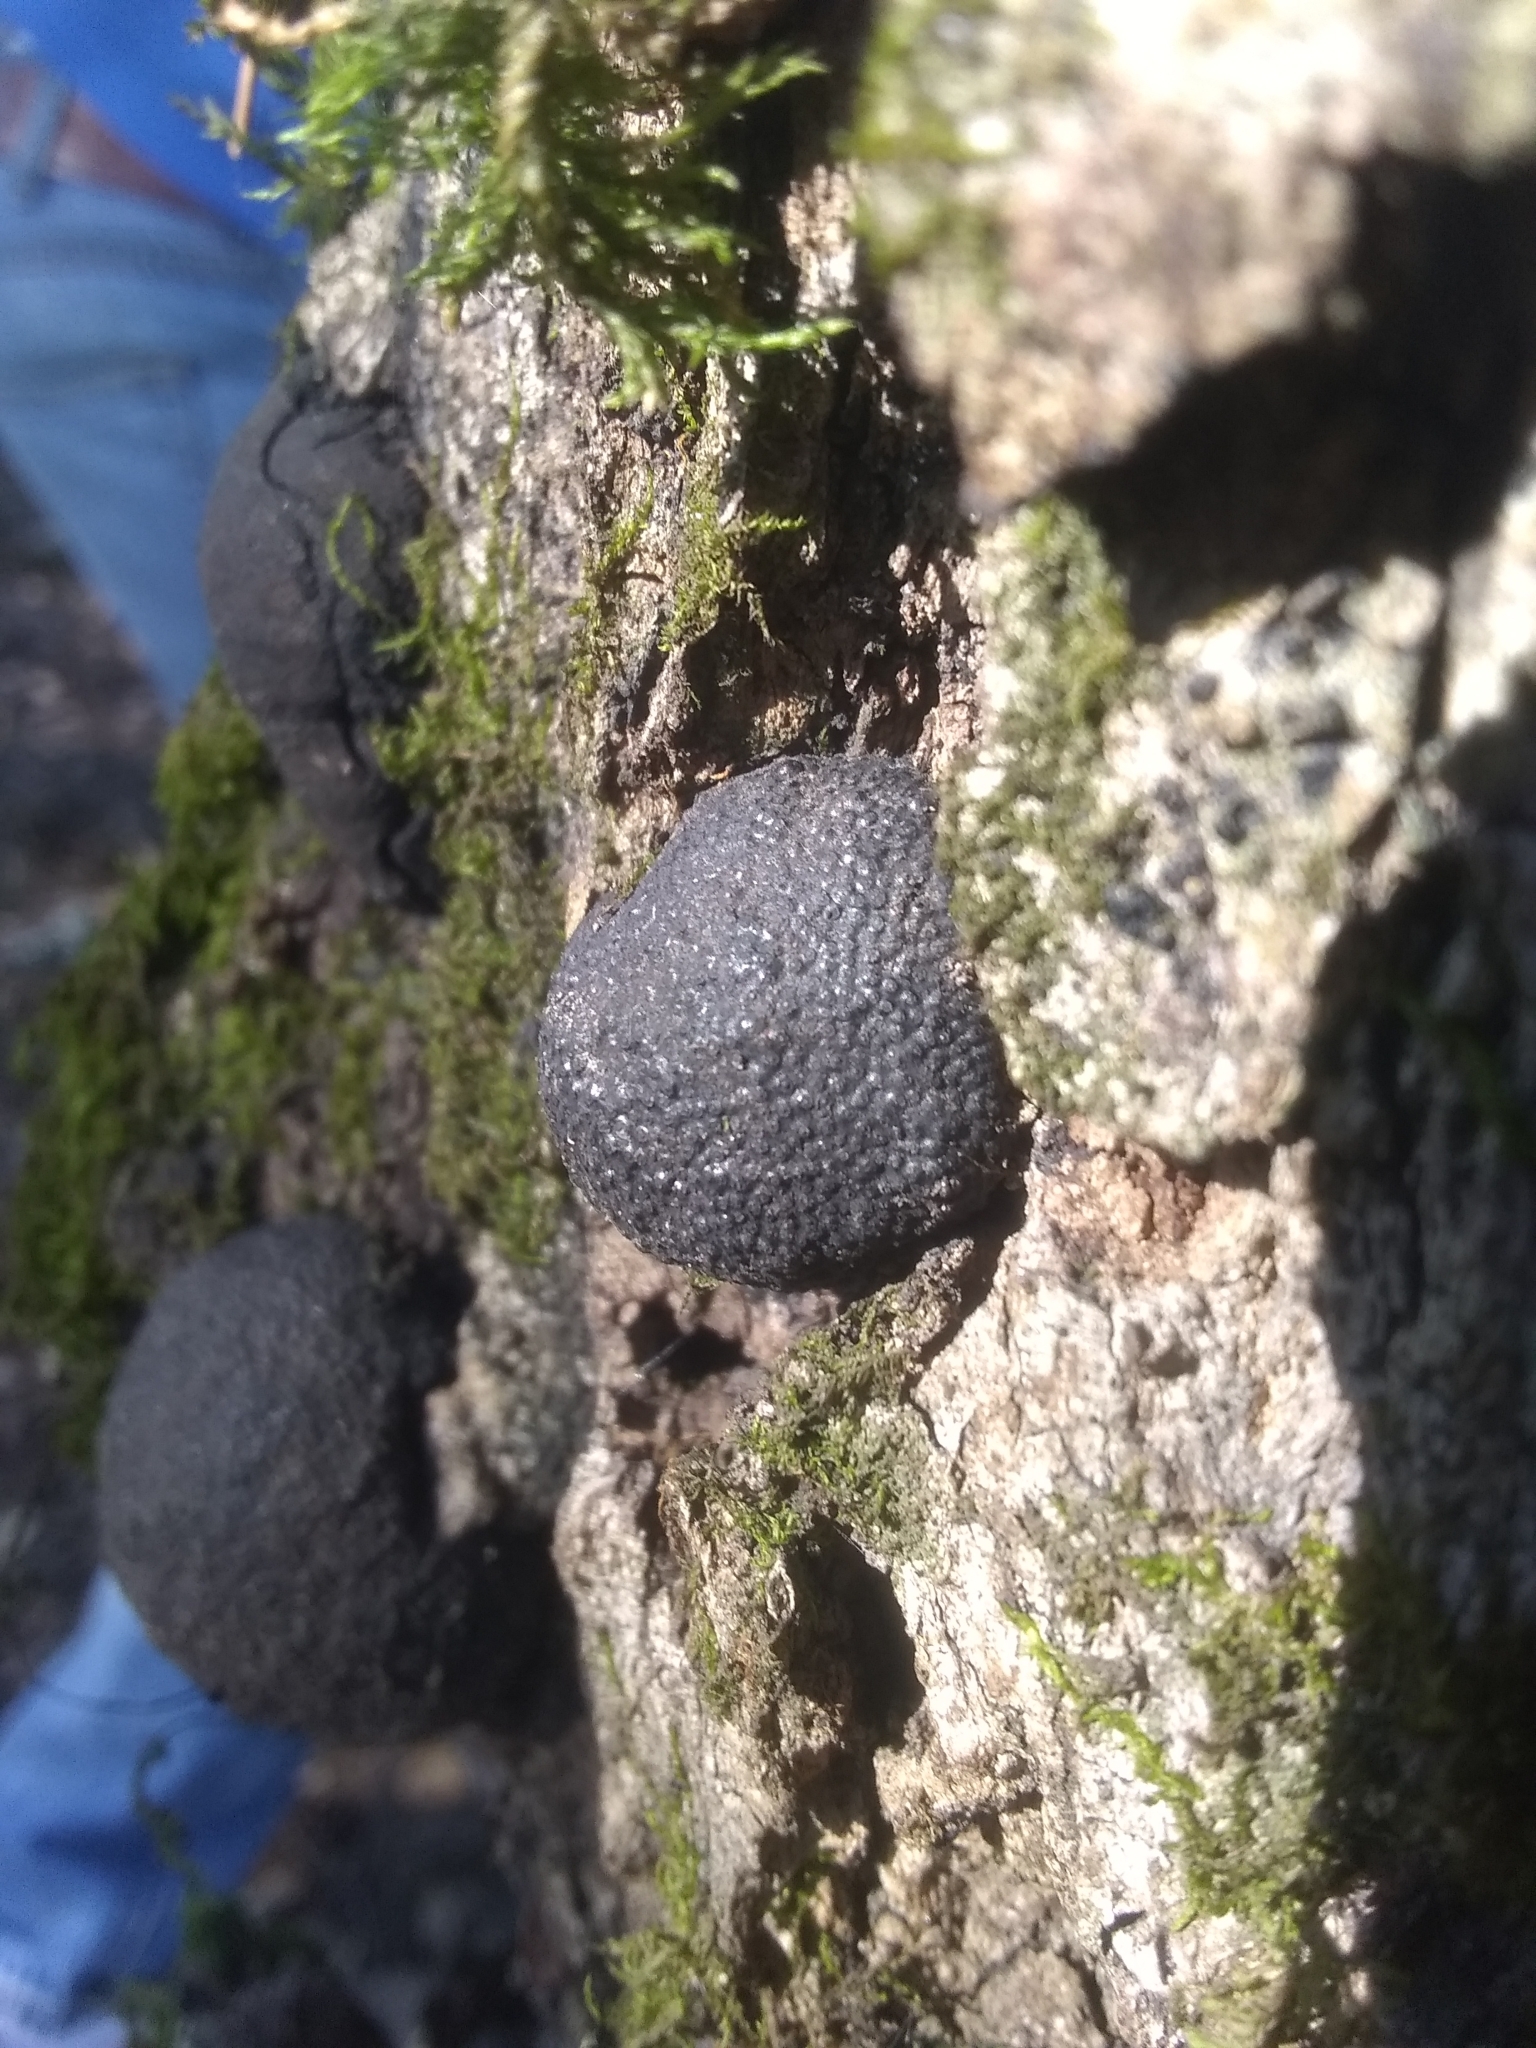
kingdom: Fungi
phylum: Ascomycota
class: Sordariomycetes
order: Xylariales
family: Hypoxylaceae
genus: Annulohypoxylon
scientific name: Annulohypoxylon thouarsianum
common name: Cramp balls
